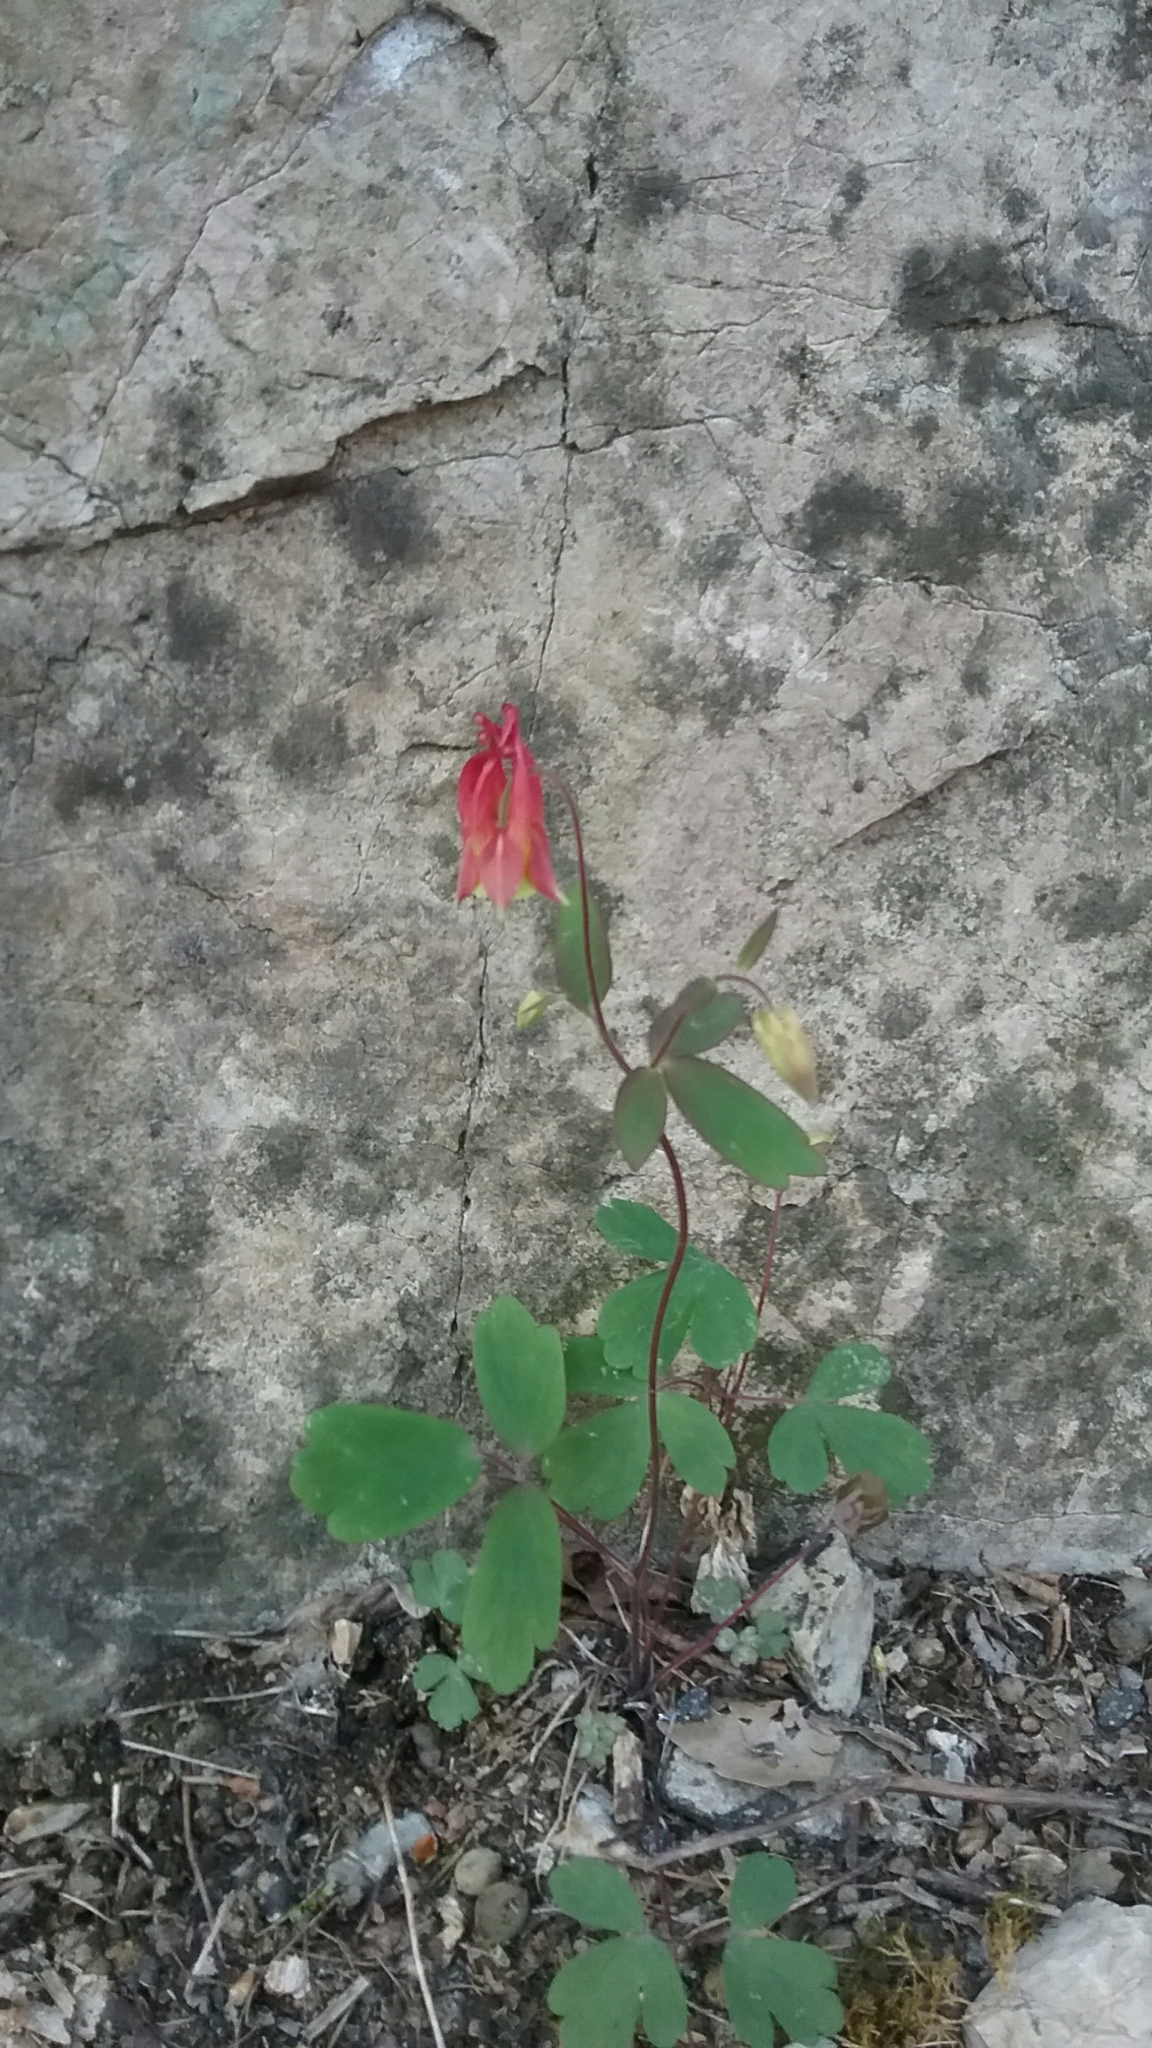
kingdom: Plantae
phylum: Tracheophyta
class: Magnoliopsida
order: Ranunculales
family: Ranunculaceae
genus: Aquilegia
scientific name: Aquilegia canadensis
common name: American columbine
